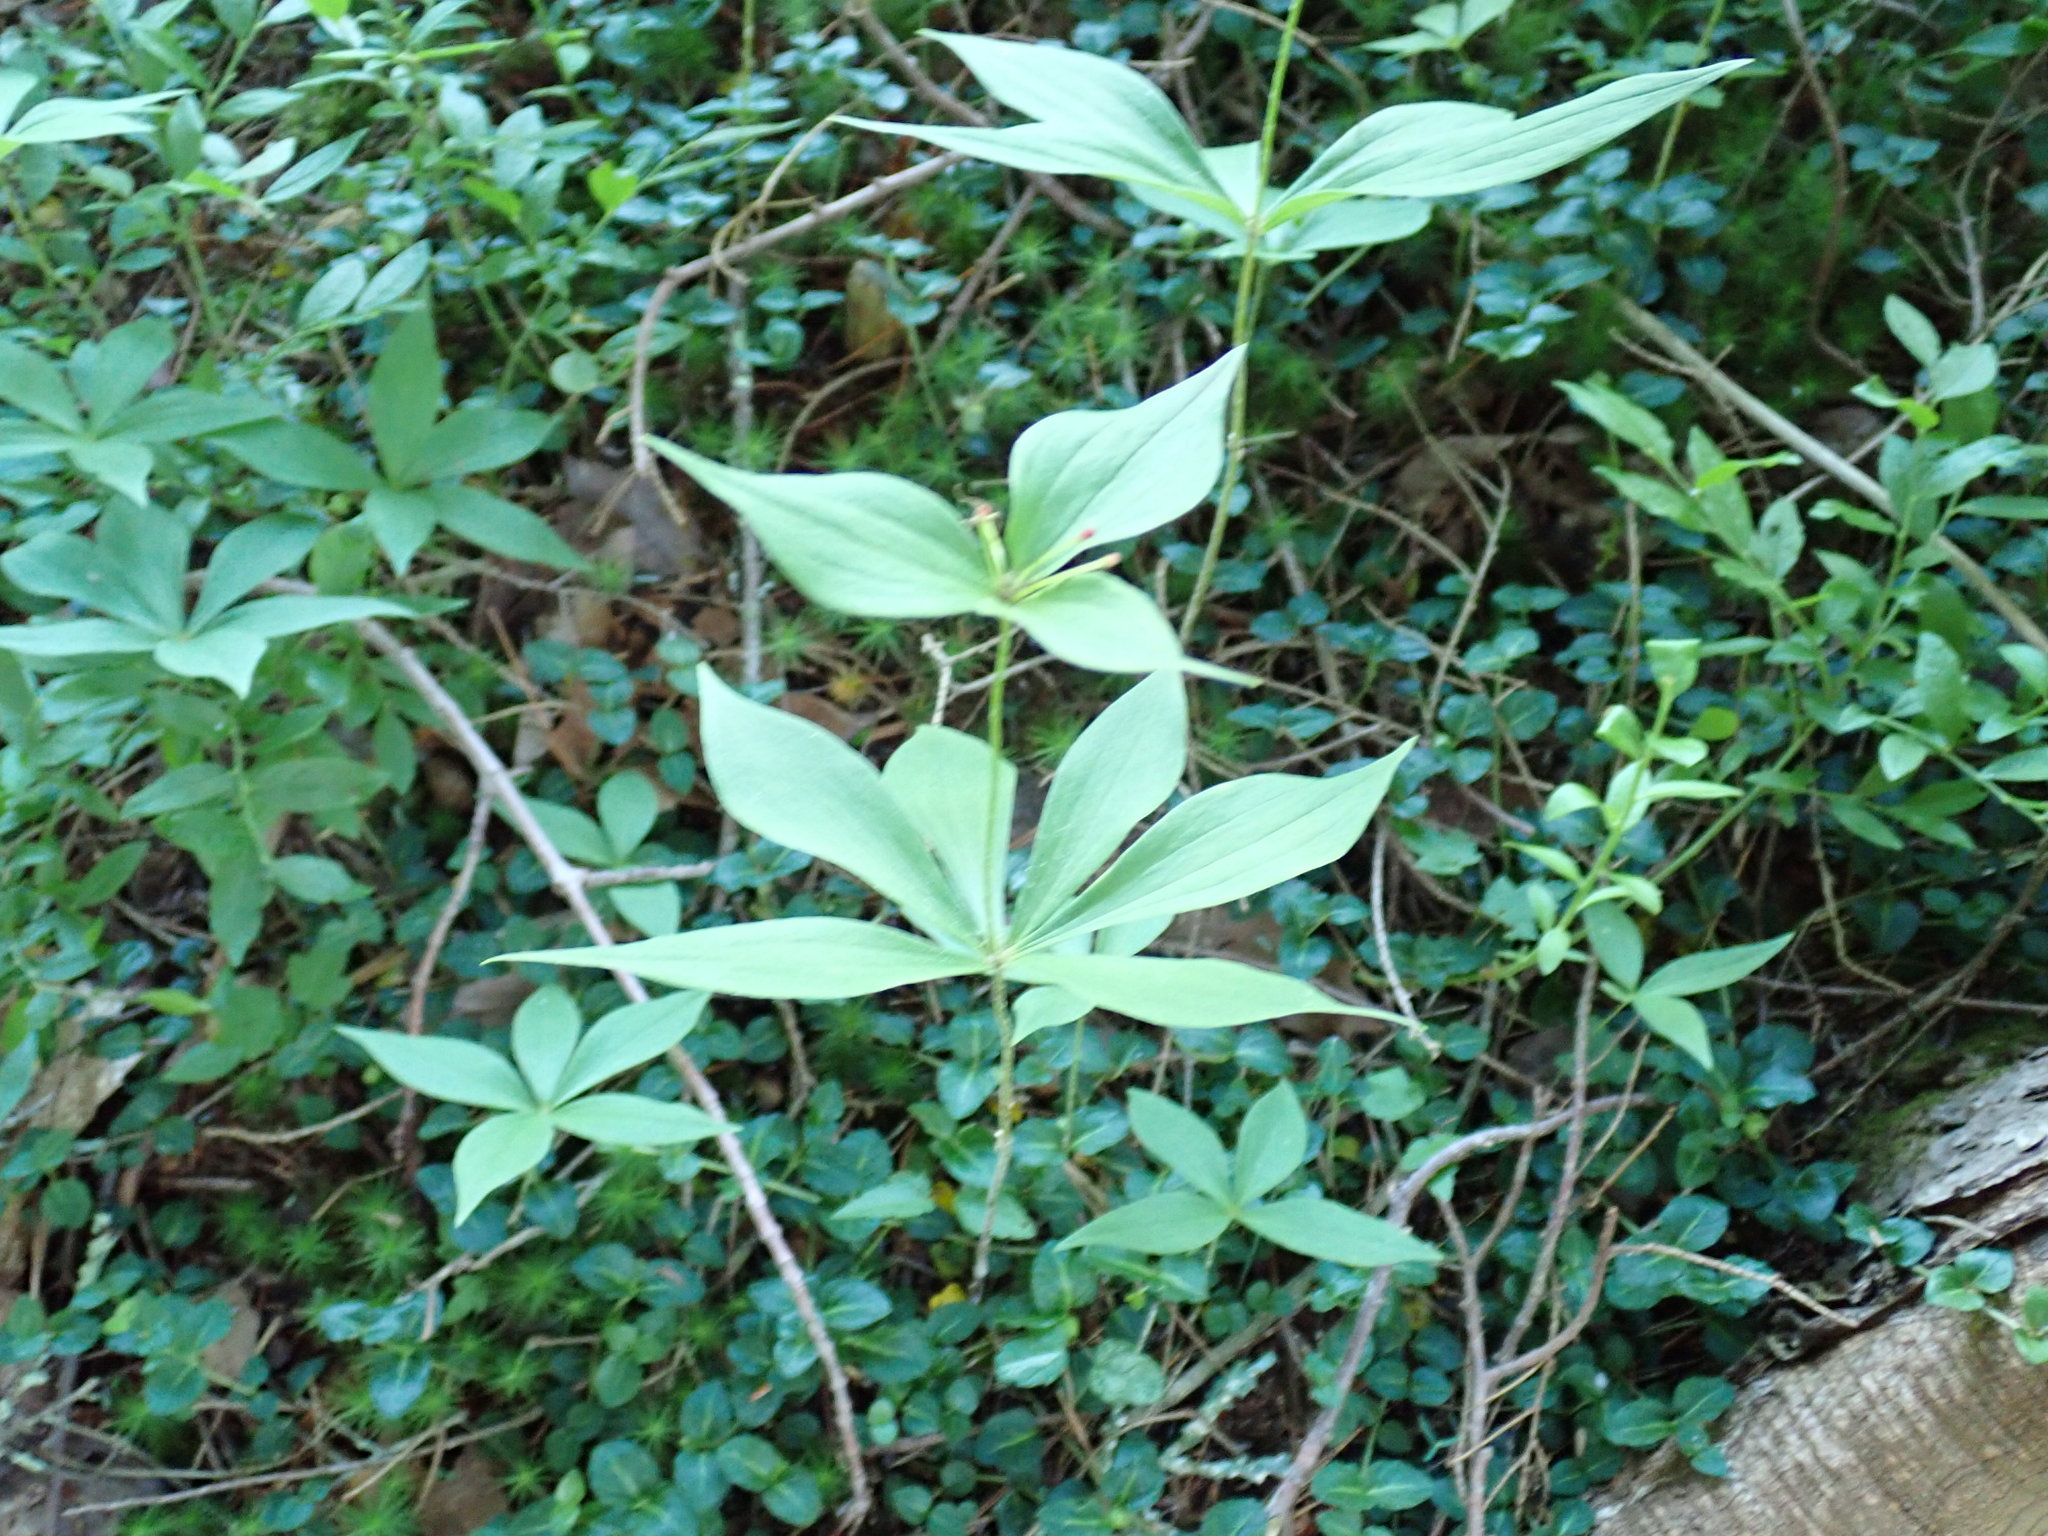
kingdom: Plantae
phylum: Tracheophyta
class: Liliopsida
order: Liliales
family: Liliaceae
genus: Medeola
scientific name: Medeola virginiana
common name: Indian cucumber-root
